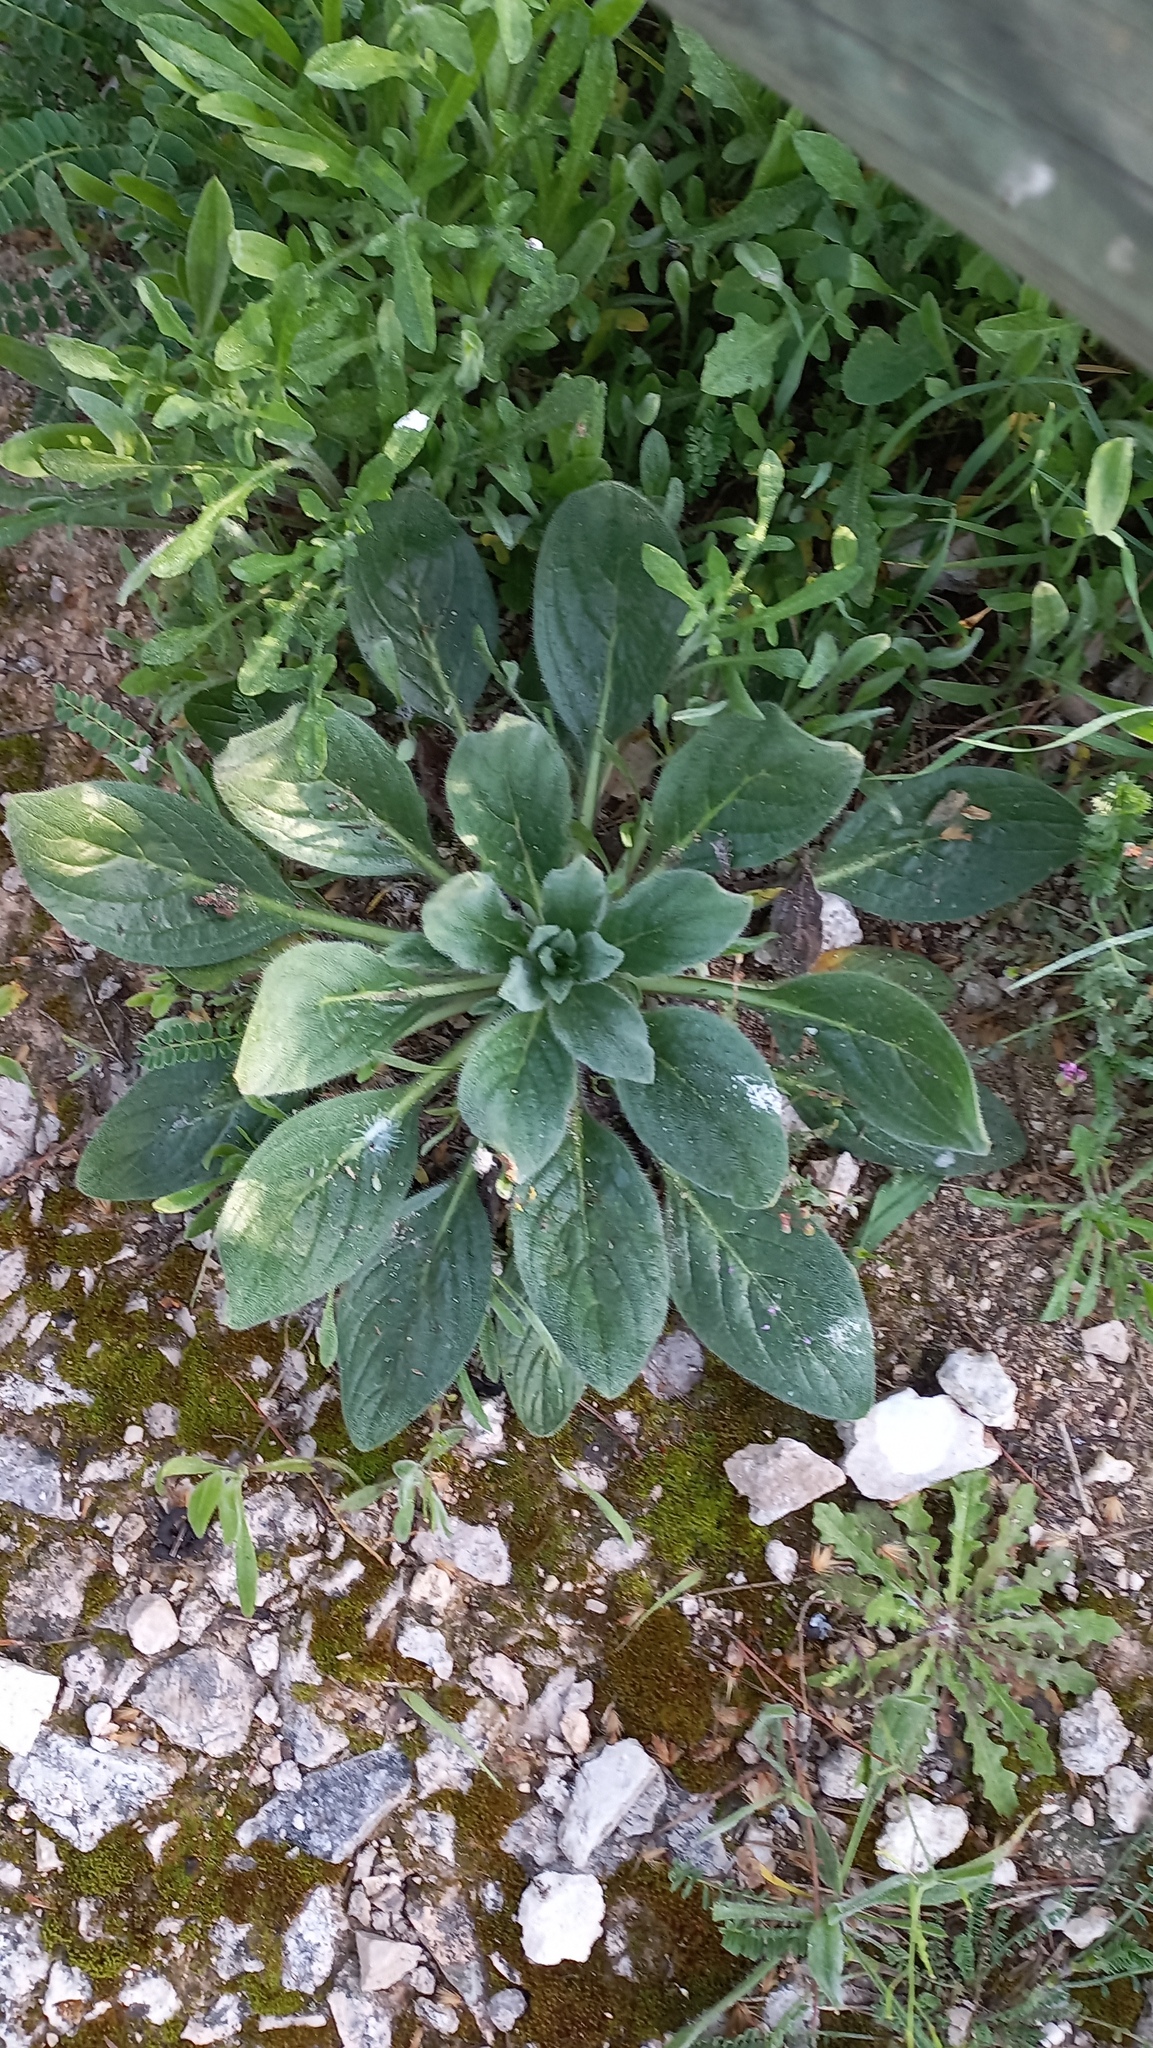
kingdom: Plantae
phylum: Tracheophyta
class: Magnoliopsida
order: Boraginales
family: Boraginaceae
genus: Echium
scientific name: Echium plantagineum
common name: Purple viper's-bugloss
